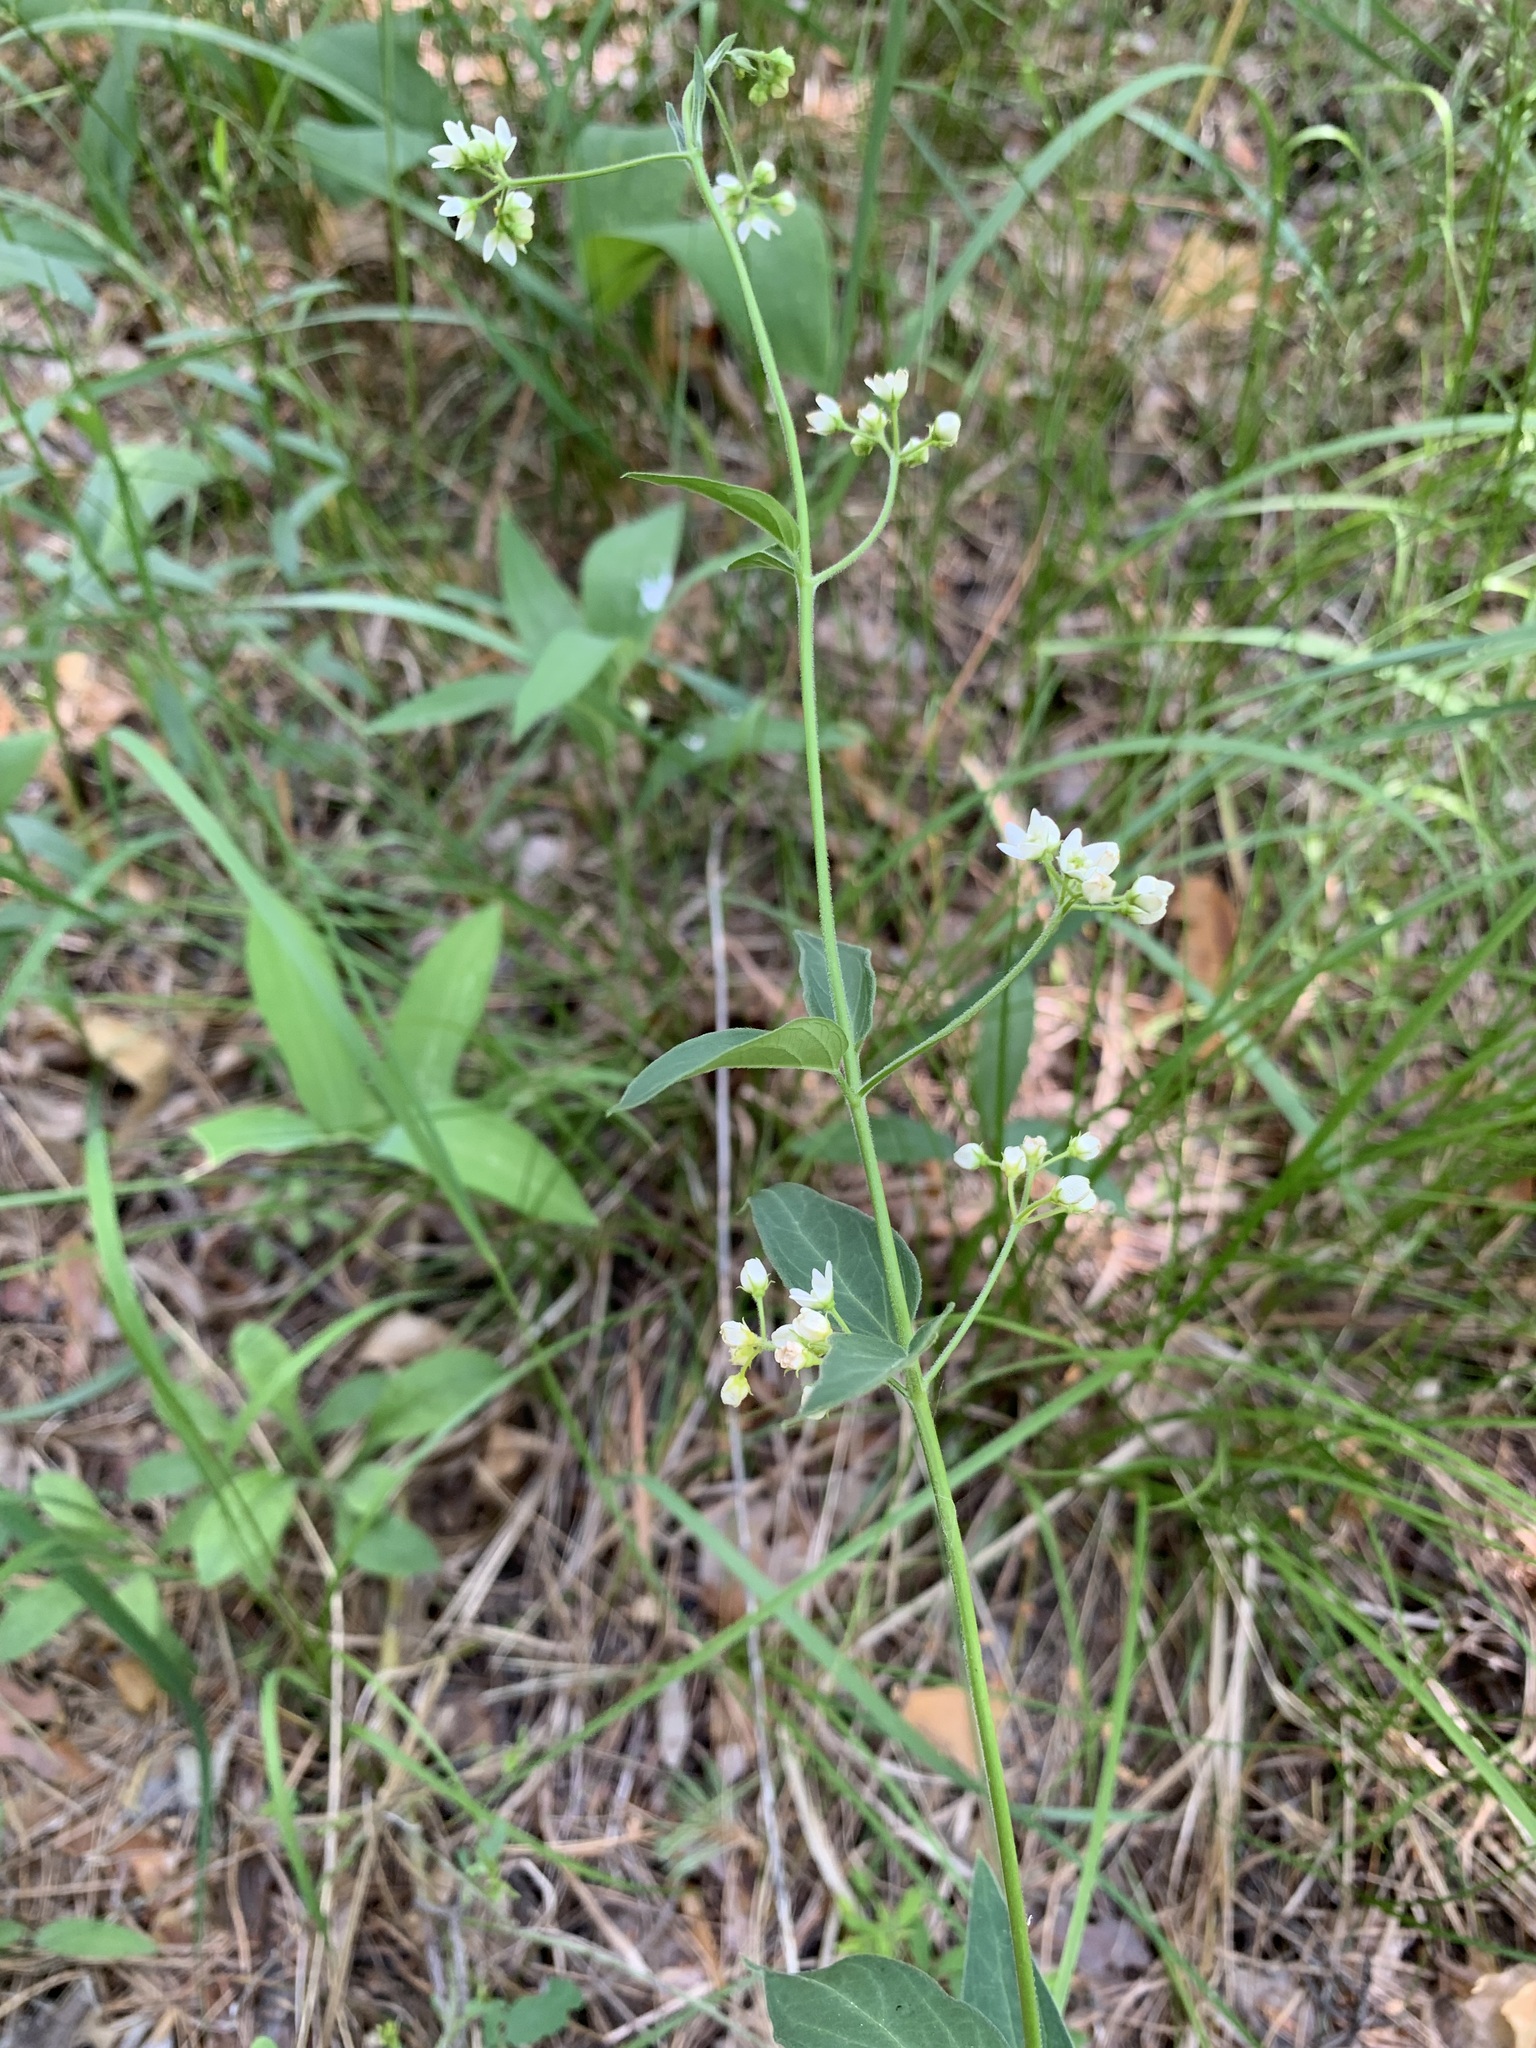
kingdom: Plantae
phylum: Tracheophyta
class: Magnoliopsida
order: Gentianales
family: Apocynaceae
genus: Vincetoxicum
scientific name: Vincetoxicum hirundinaria
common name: White swallowwort
